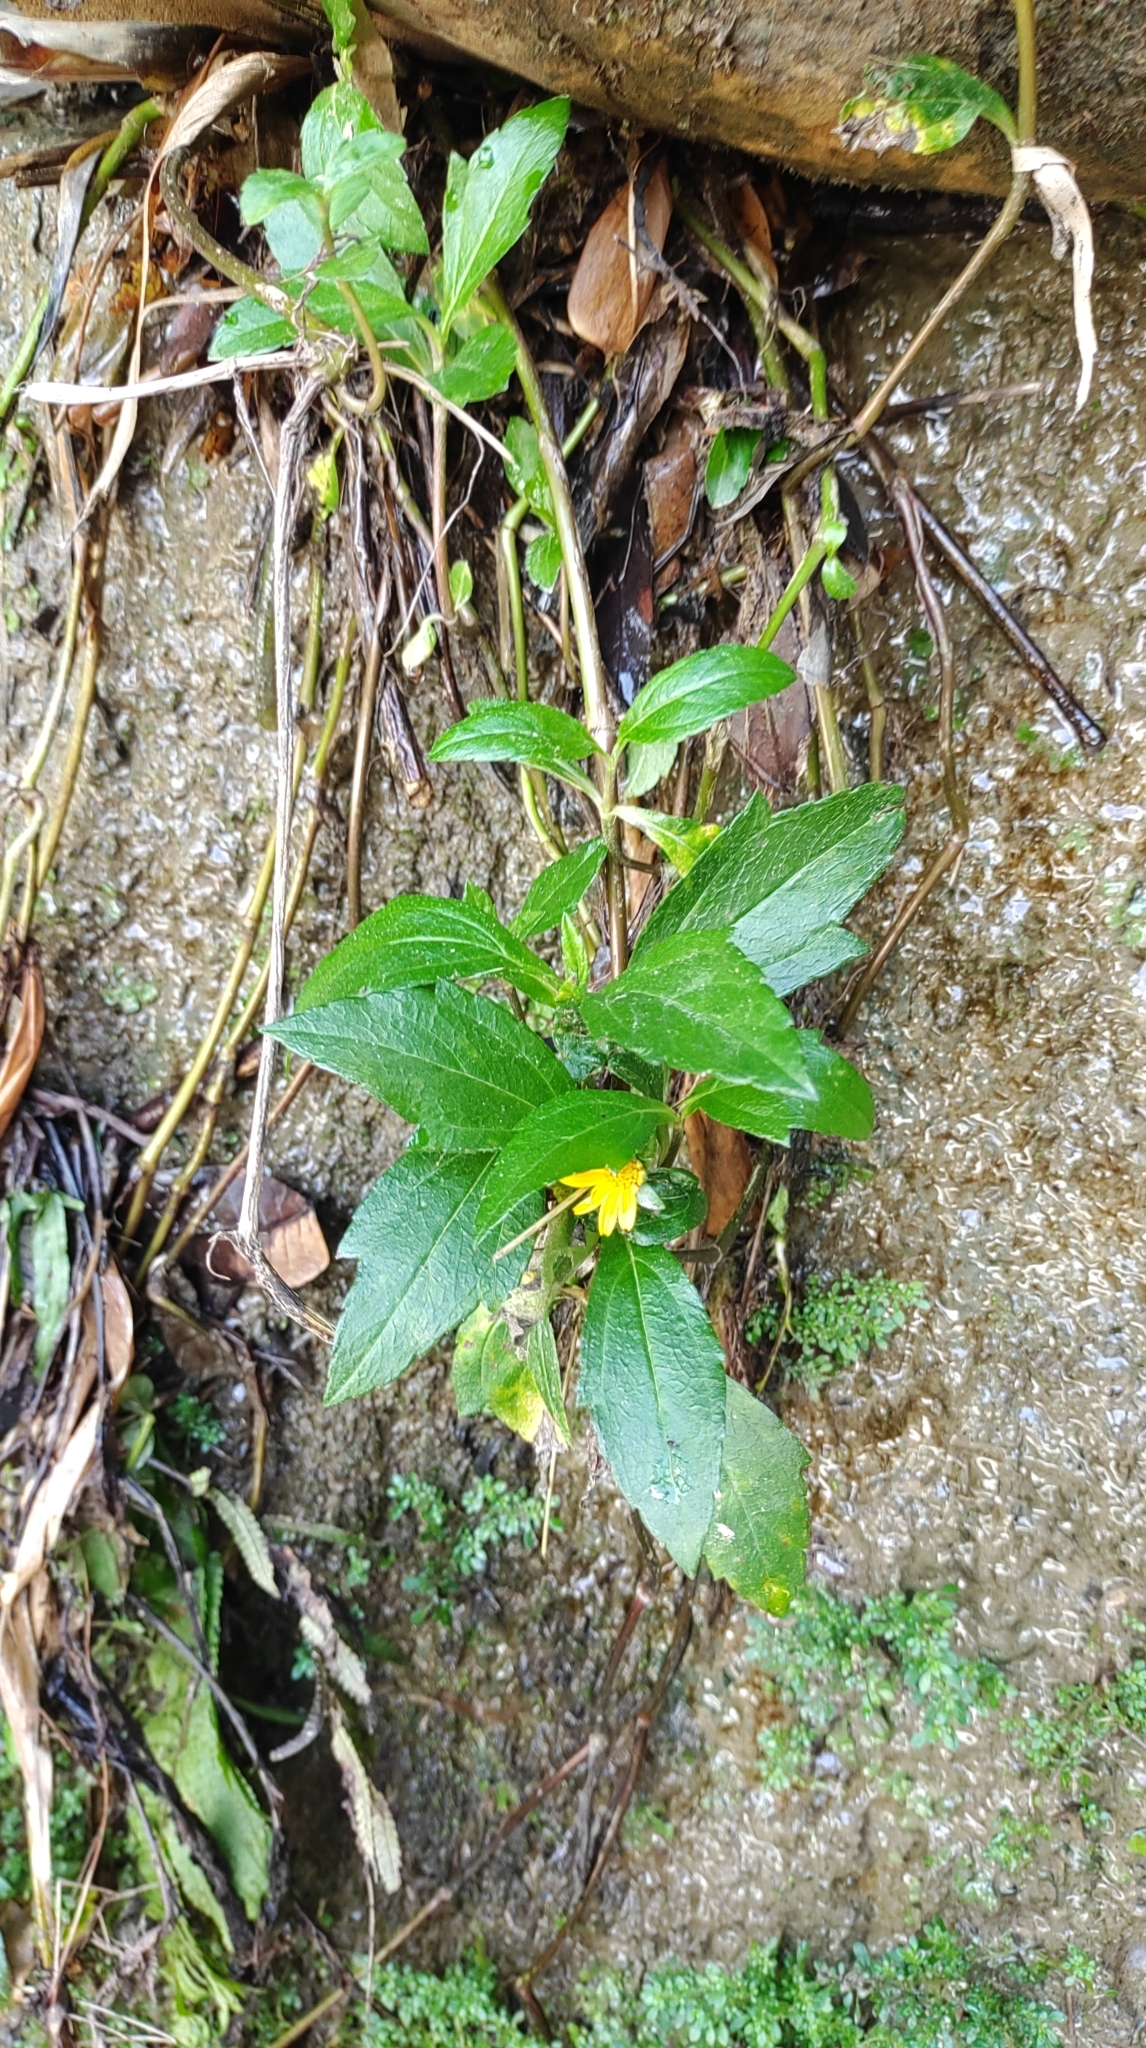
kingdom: Plantae
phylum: Tracheophyta
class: Magnoliopsida
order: Asterales
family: Asteraceae
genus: Sphagneticola
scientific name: Sphagneticola trilobata
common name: Bay biscayne creeping-oxeye
